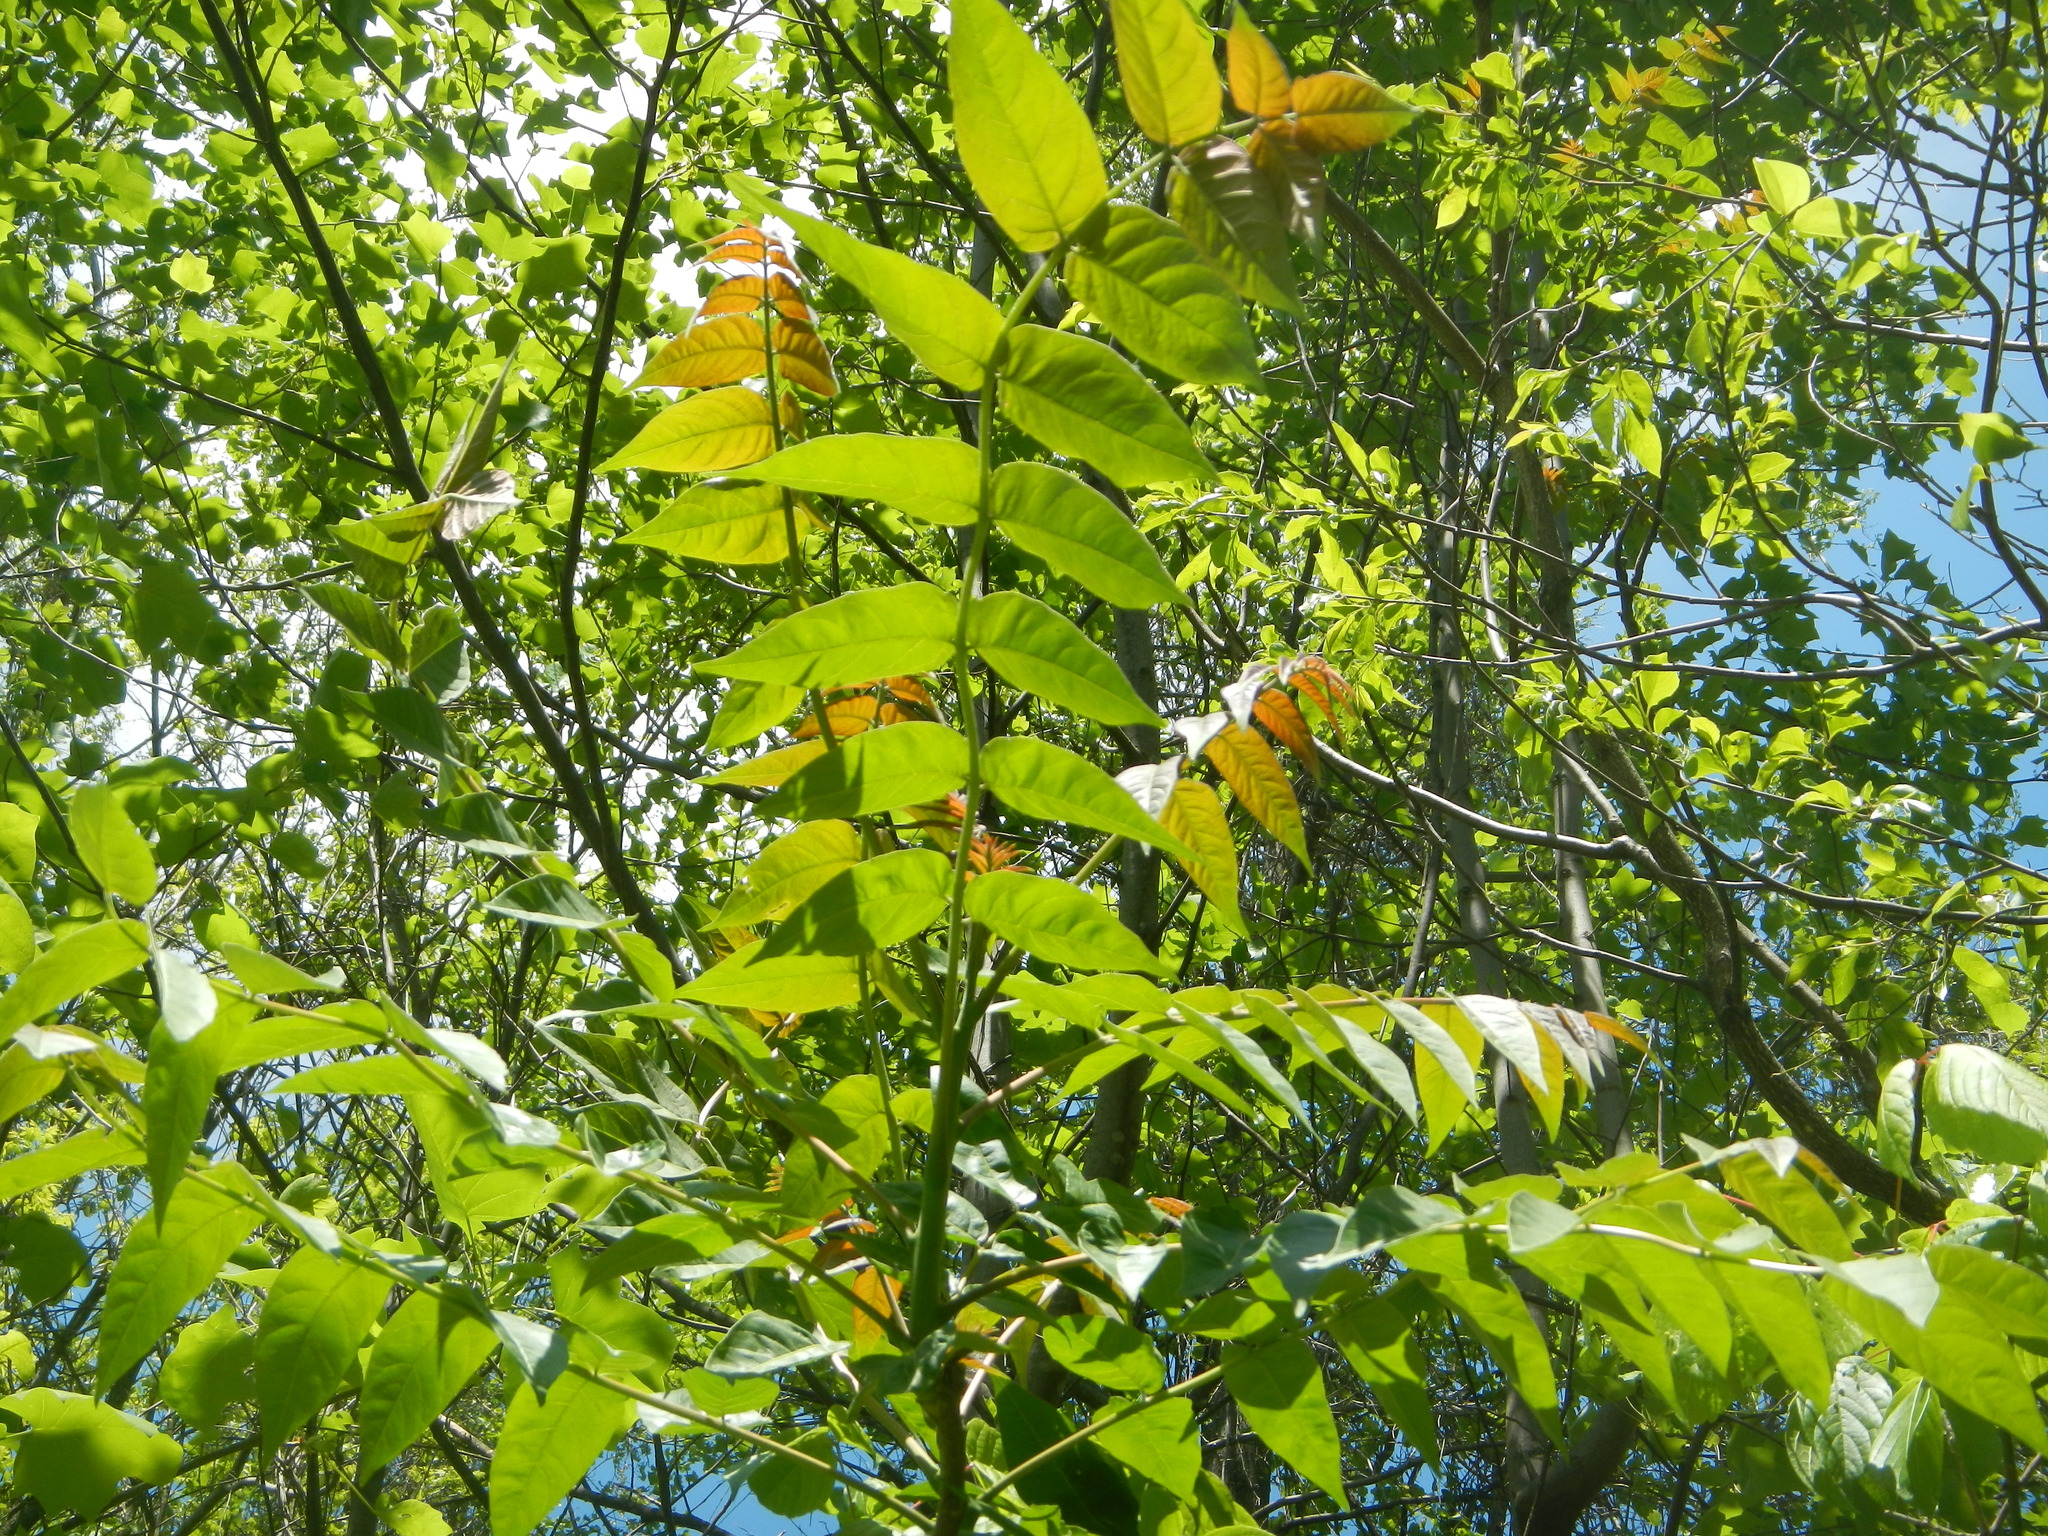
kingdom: Plantae
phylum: Tracheophyta
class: Magnoliopsida
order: Sapindales
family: Simaroubaceae
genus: Ailanthus
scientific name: Ailanthus altissima
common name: Tree-of-heaven
